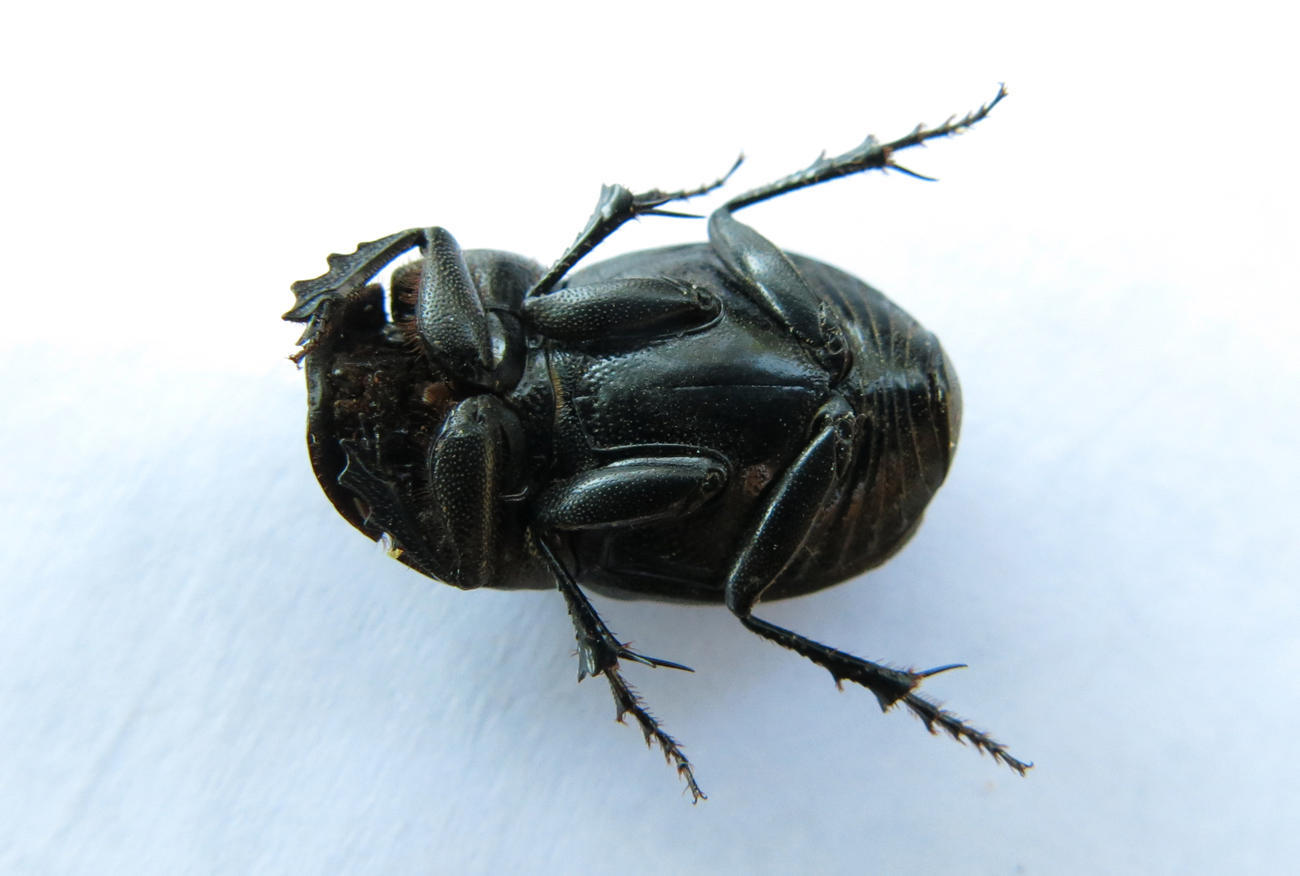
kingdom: Animalia
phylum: Arthropoda
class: Insecta
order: Coleoptera
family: Scarabaeidae
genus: Copris
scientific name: Copris fidius
